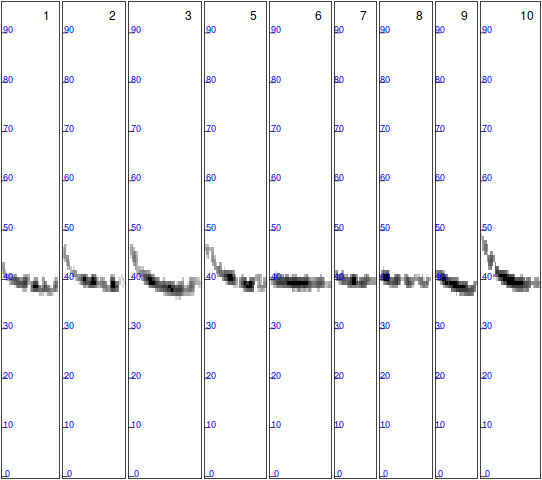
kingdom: Animalia
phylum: Chordata
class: Mammalia
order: Chiroptera
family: Vespertilionidae
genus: Pipistrellus
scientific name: Pipistrellus nathusii
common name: Nathusius's pipistrelle
